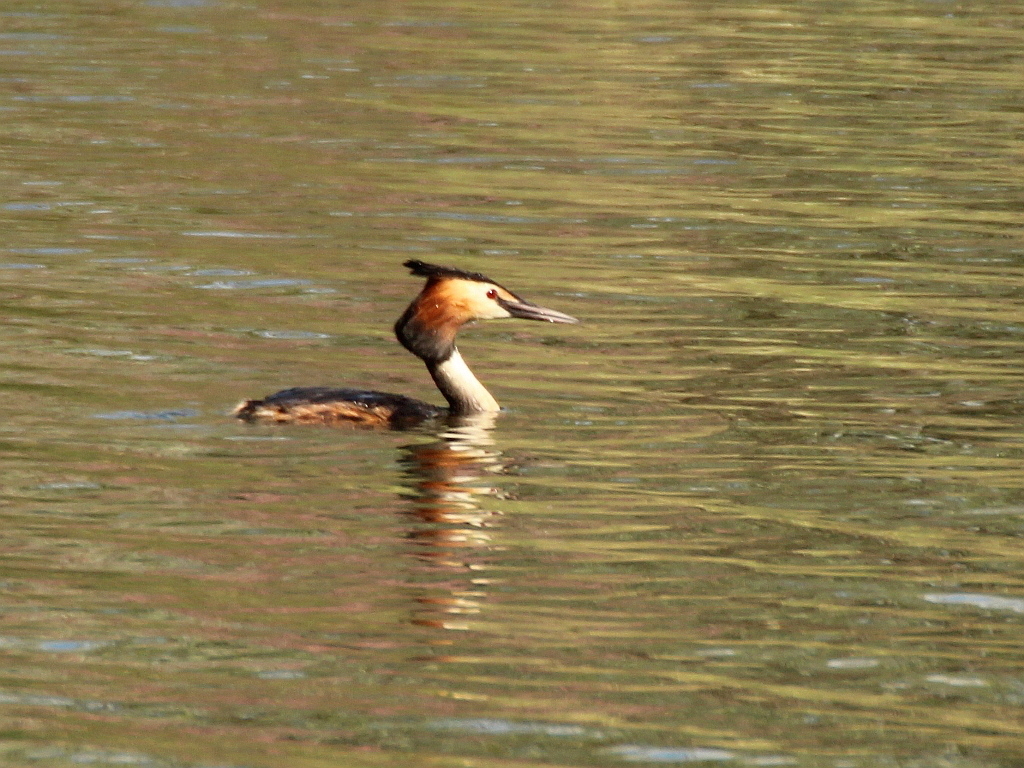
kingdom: Animalia
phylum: Chordata
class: Aves
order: Podicipediformes
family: Podicipedidae
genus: Podiceps
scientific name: Podiceps cristatus
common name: Great crested grebe
